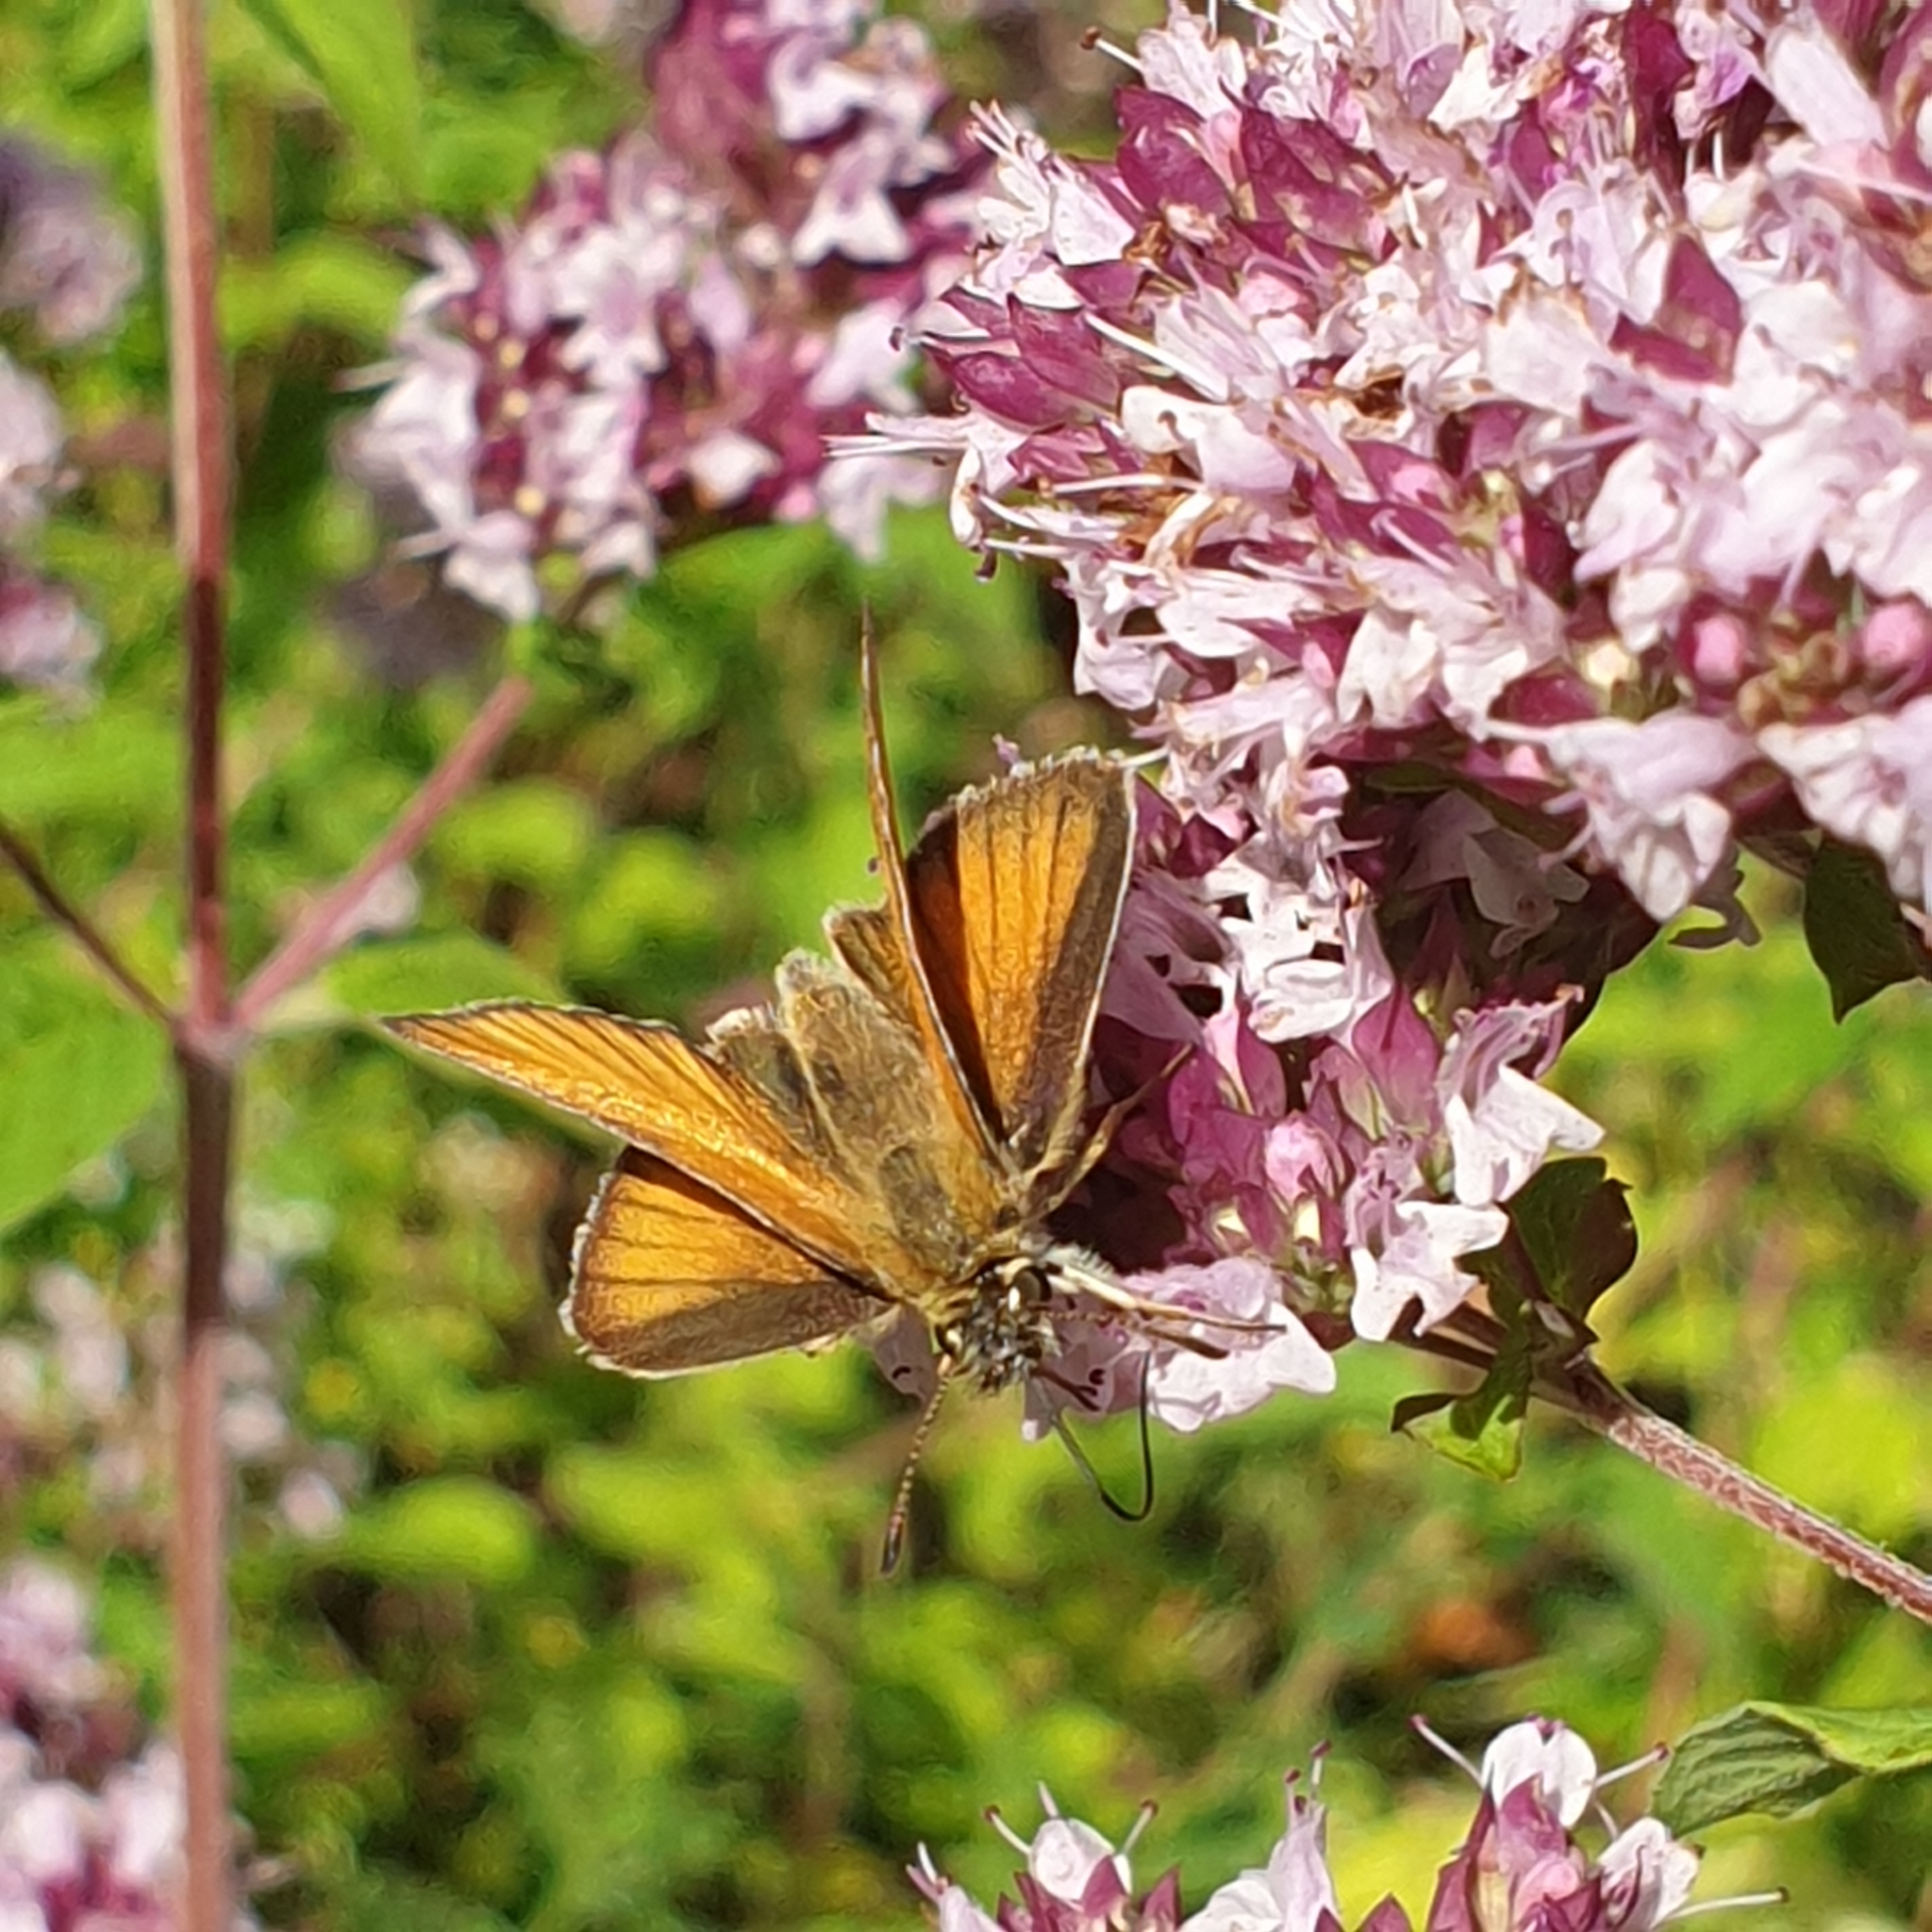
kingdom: Animalia
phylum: Arthropoda
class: Insecta
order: Lepidoptera
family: Hesperiidae
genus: Thymelicus
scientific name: Thymelicus lineola
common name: Essex skipper
